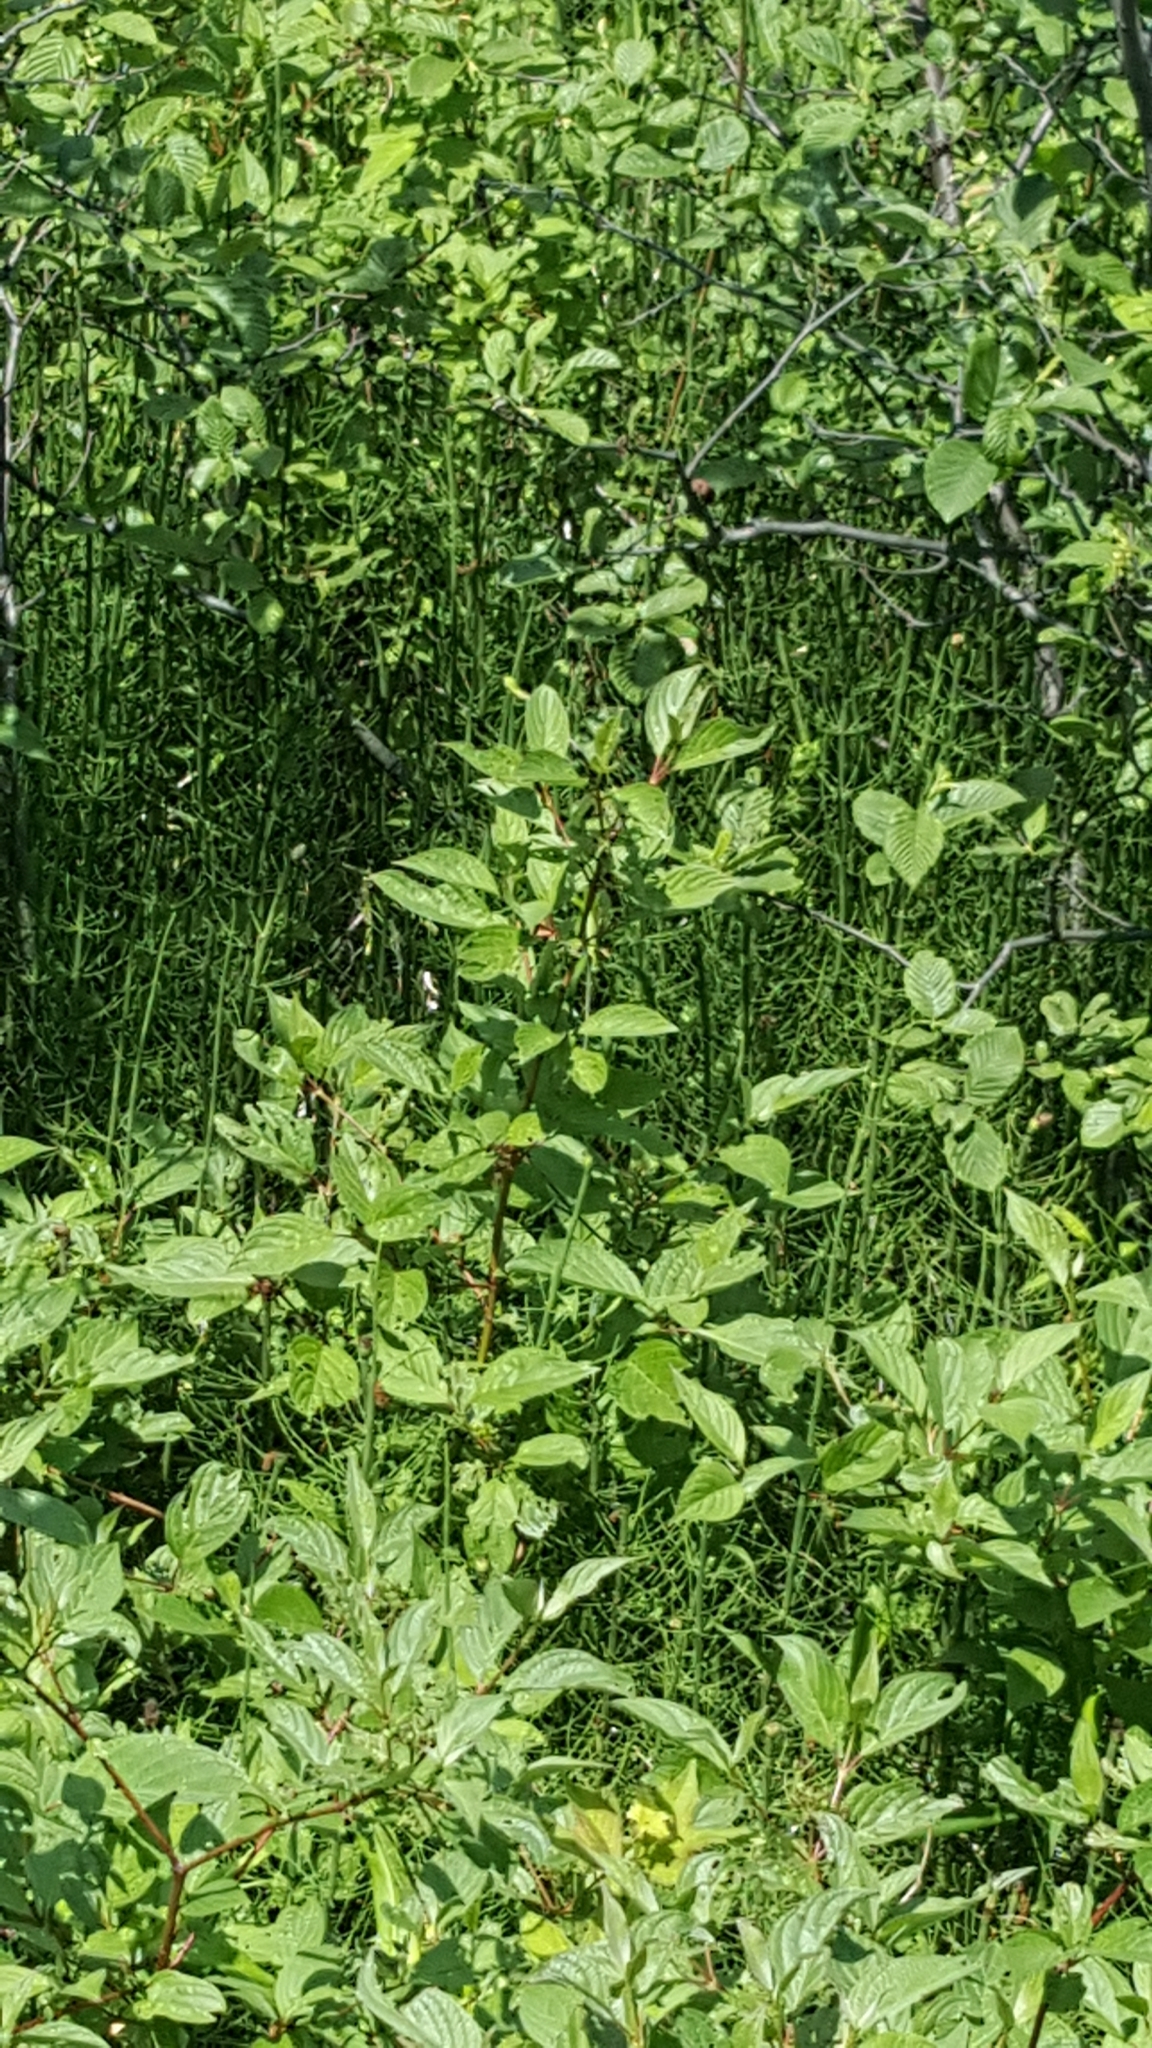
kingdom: Plantae
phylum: Tracheophyta
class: Polypodiopsida
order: Equisetales
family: Equisetaceae
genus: Equisetum
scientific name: Equisetum fluviatile
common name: Water horsetail
